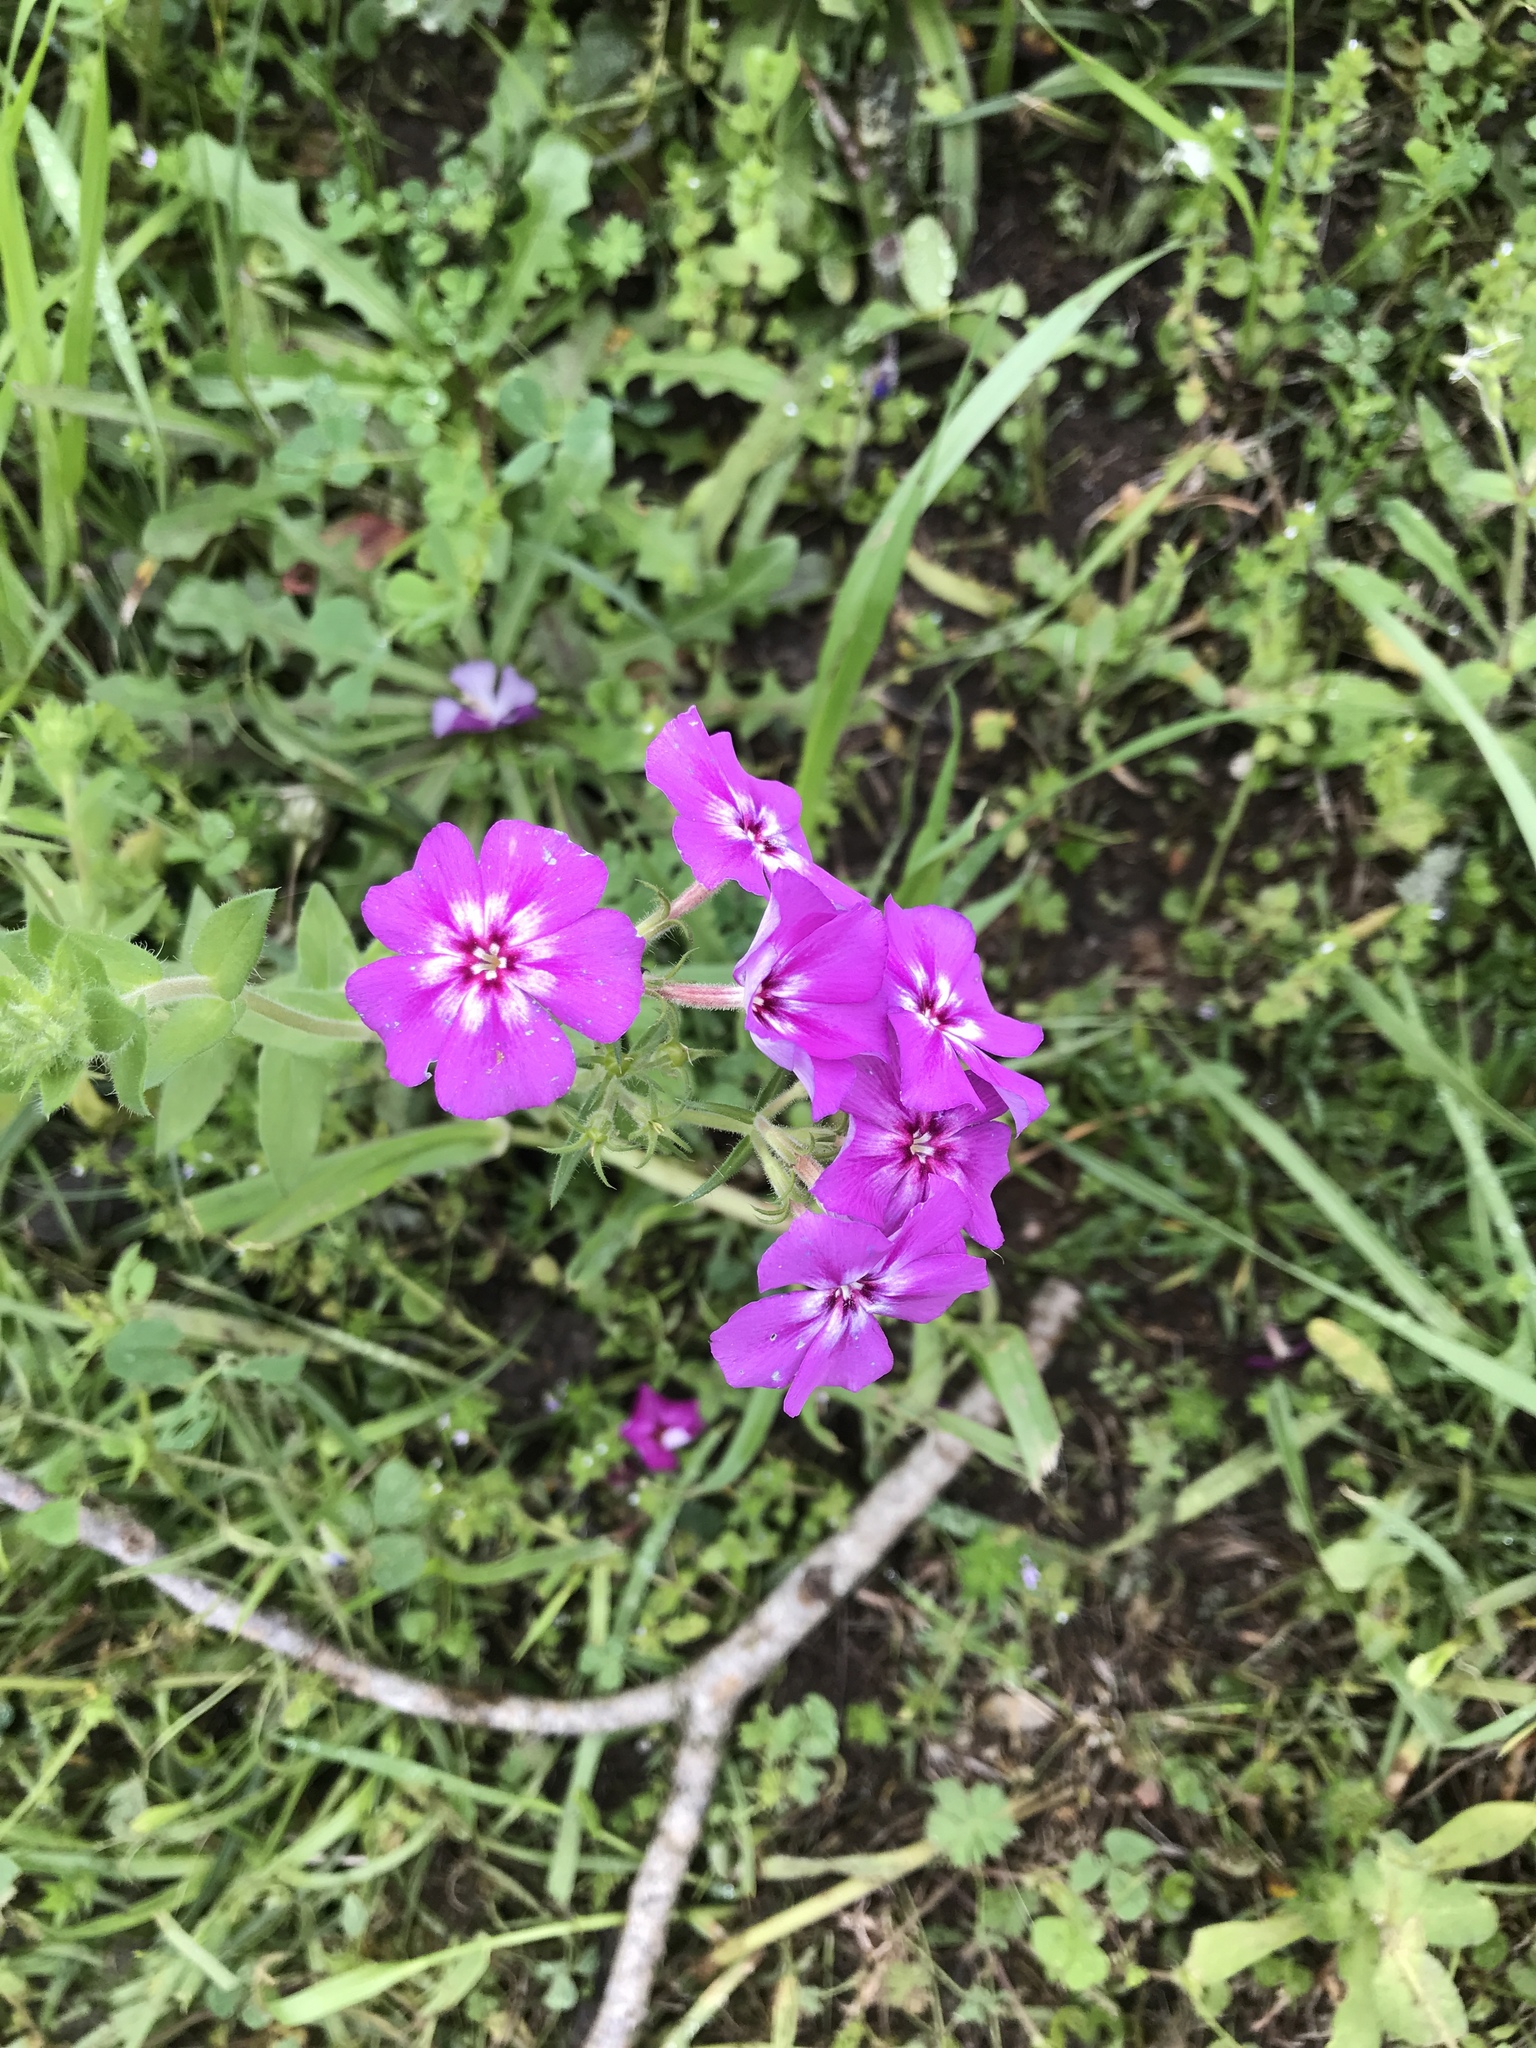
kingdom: Plantae
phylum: Tracheophyta
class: Magnoliopsida
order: Ericales
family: Polemoniaceae
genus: Phlox
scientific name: Phlox drummondii
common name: Drummond's phlox
